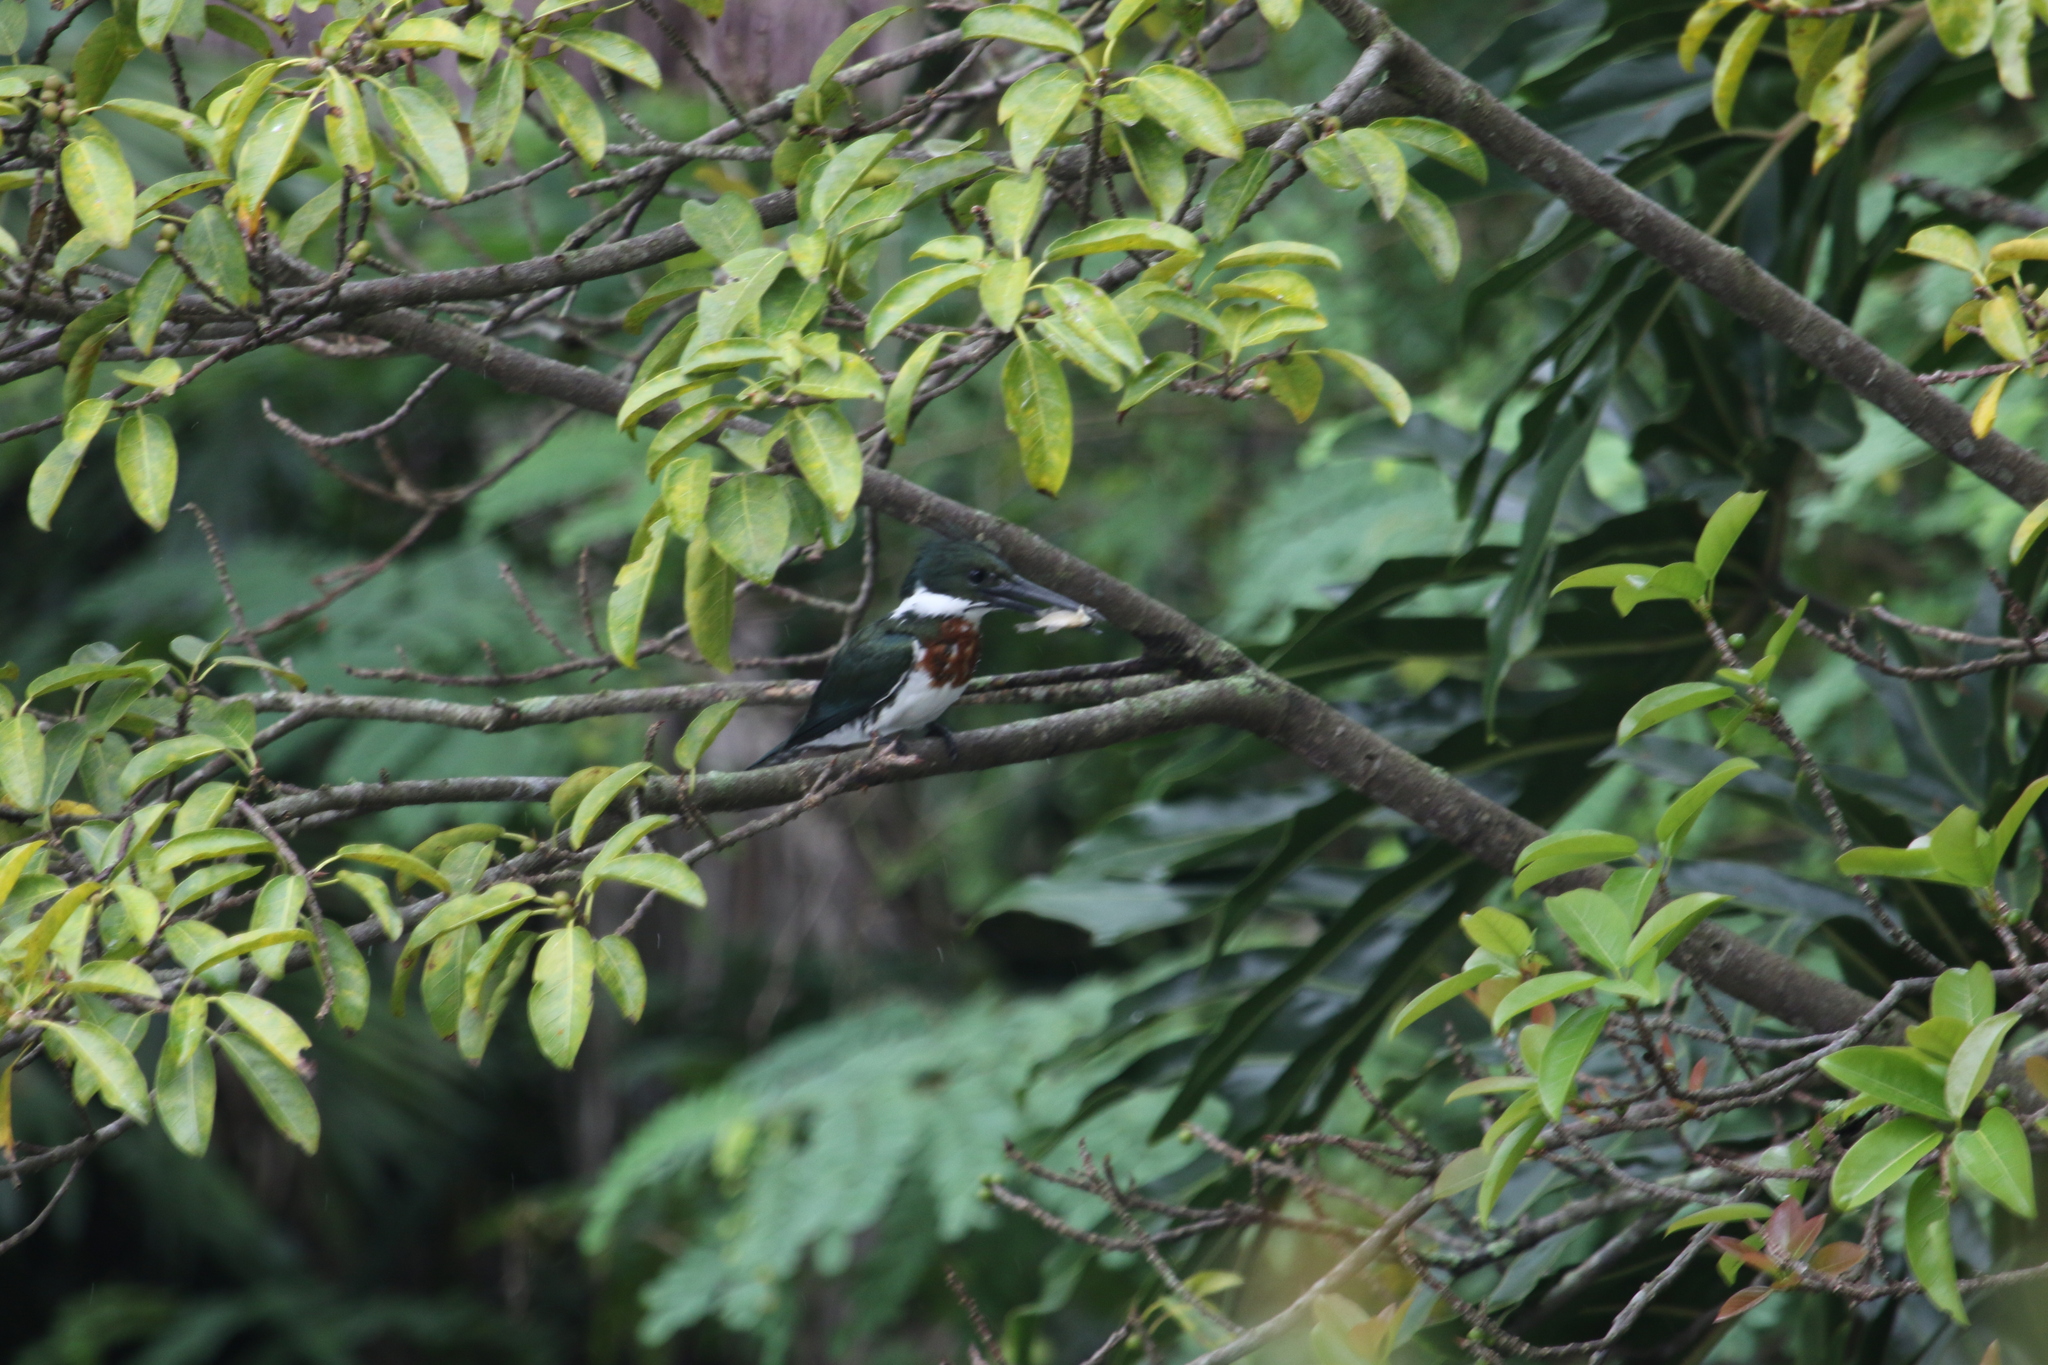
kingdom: Animalia
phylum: Chordata
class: Aves
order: Coraciiformes
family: Alcedinidae
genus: Chloroceryle
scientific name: Chloroceryle amazona
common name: Amazon kingfisher
